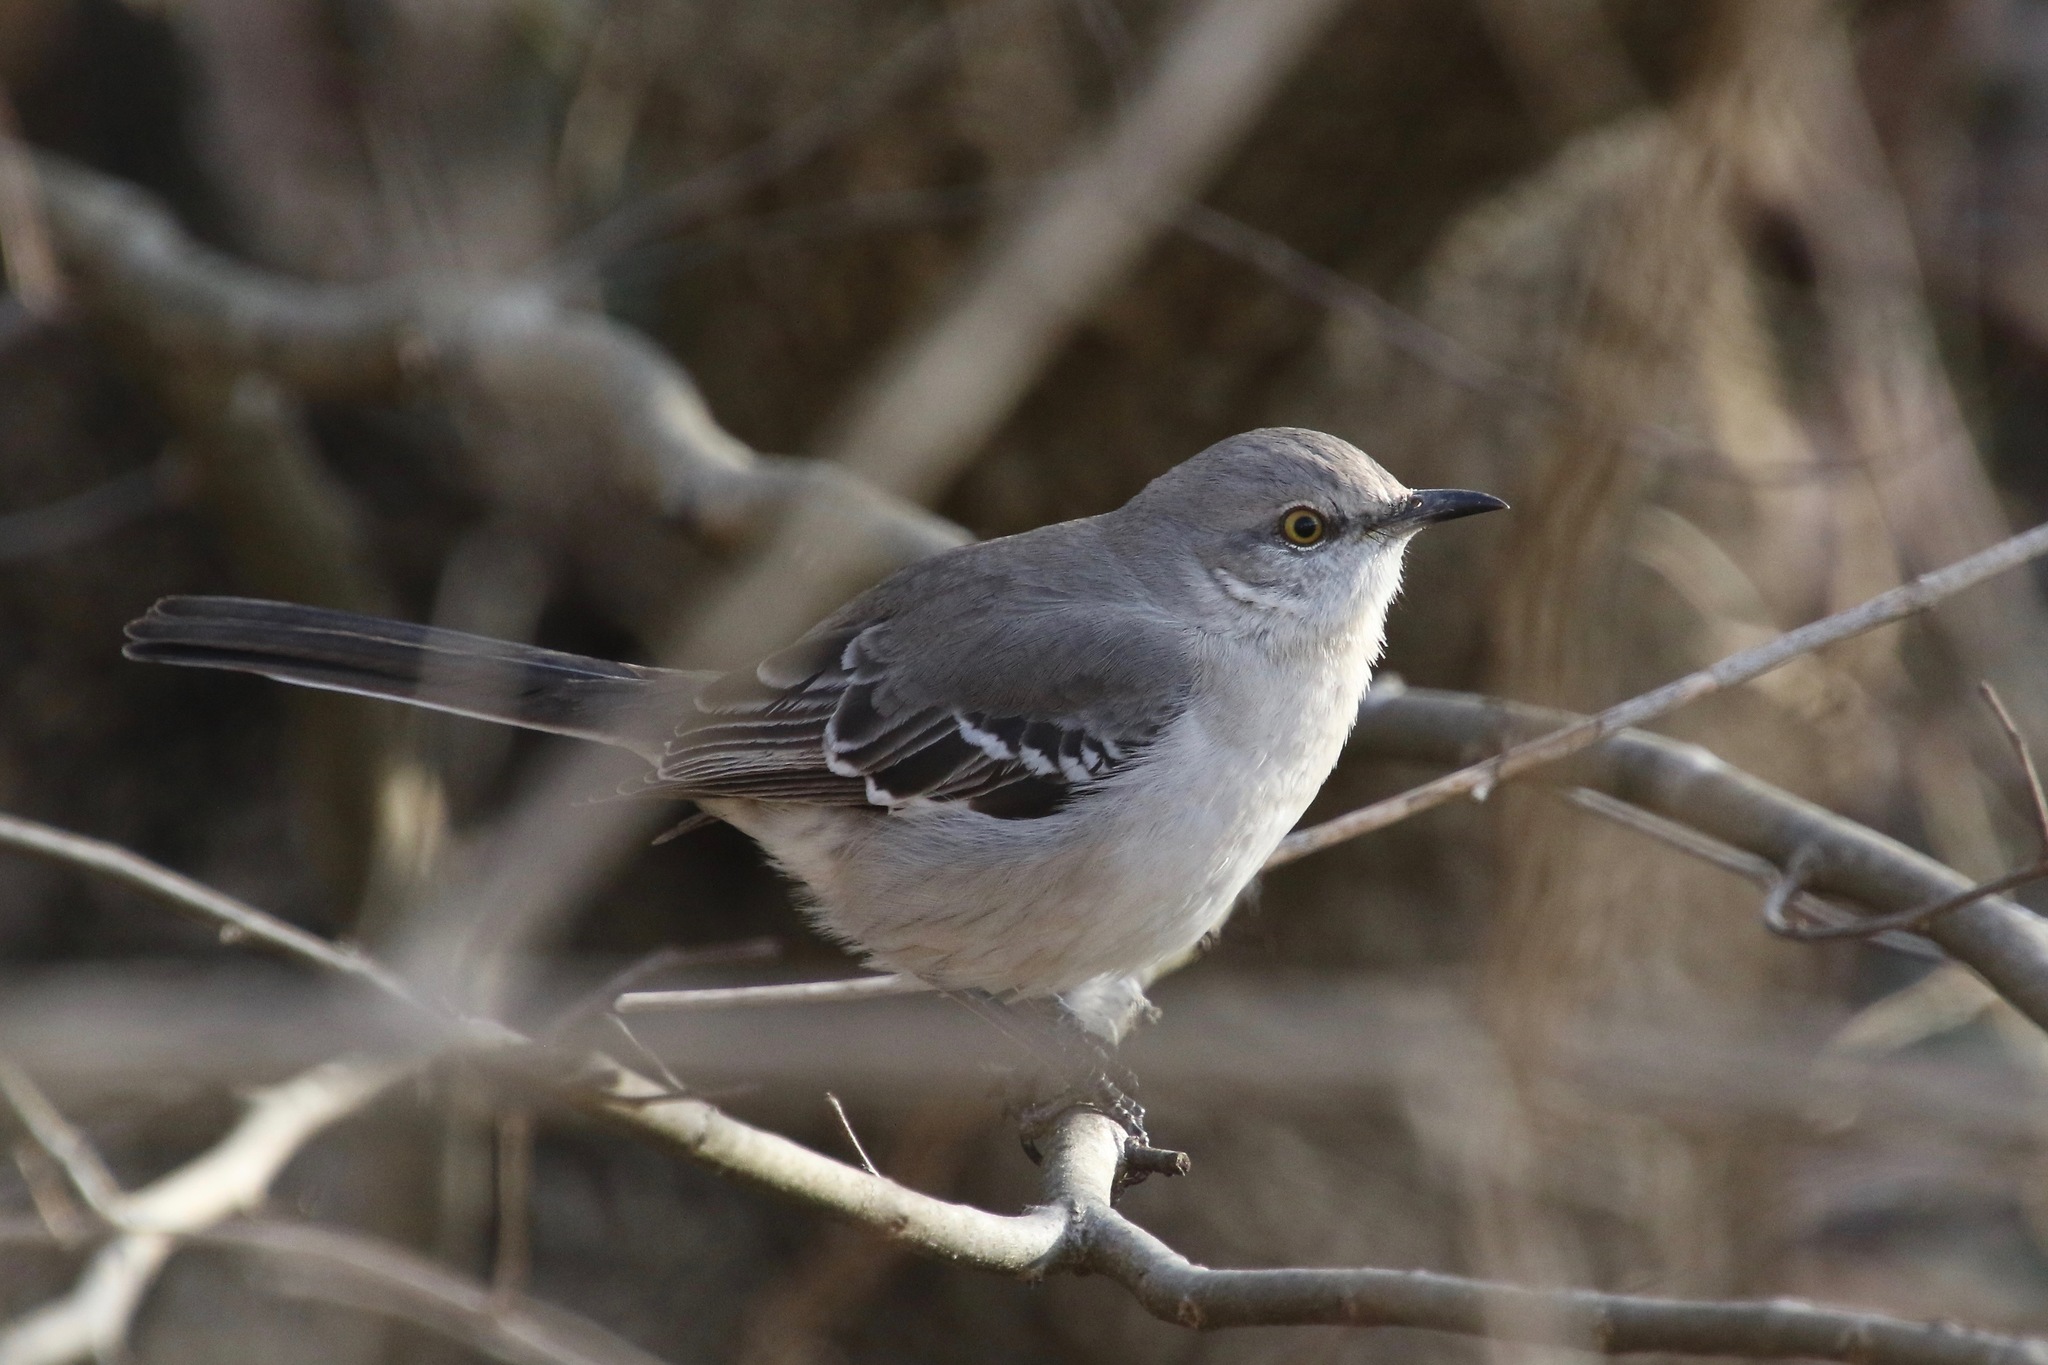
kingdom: Animalia
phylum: Chordata
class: Aves
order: Passeriformes
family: Mimidae
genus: Mimus
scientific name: Mimus polyglottos
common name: Northern mockingbird
